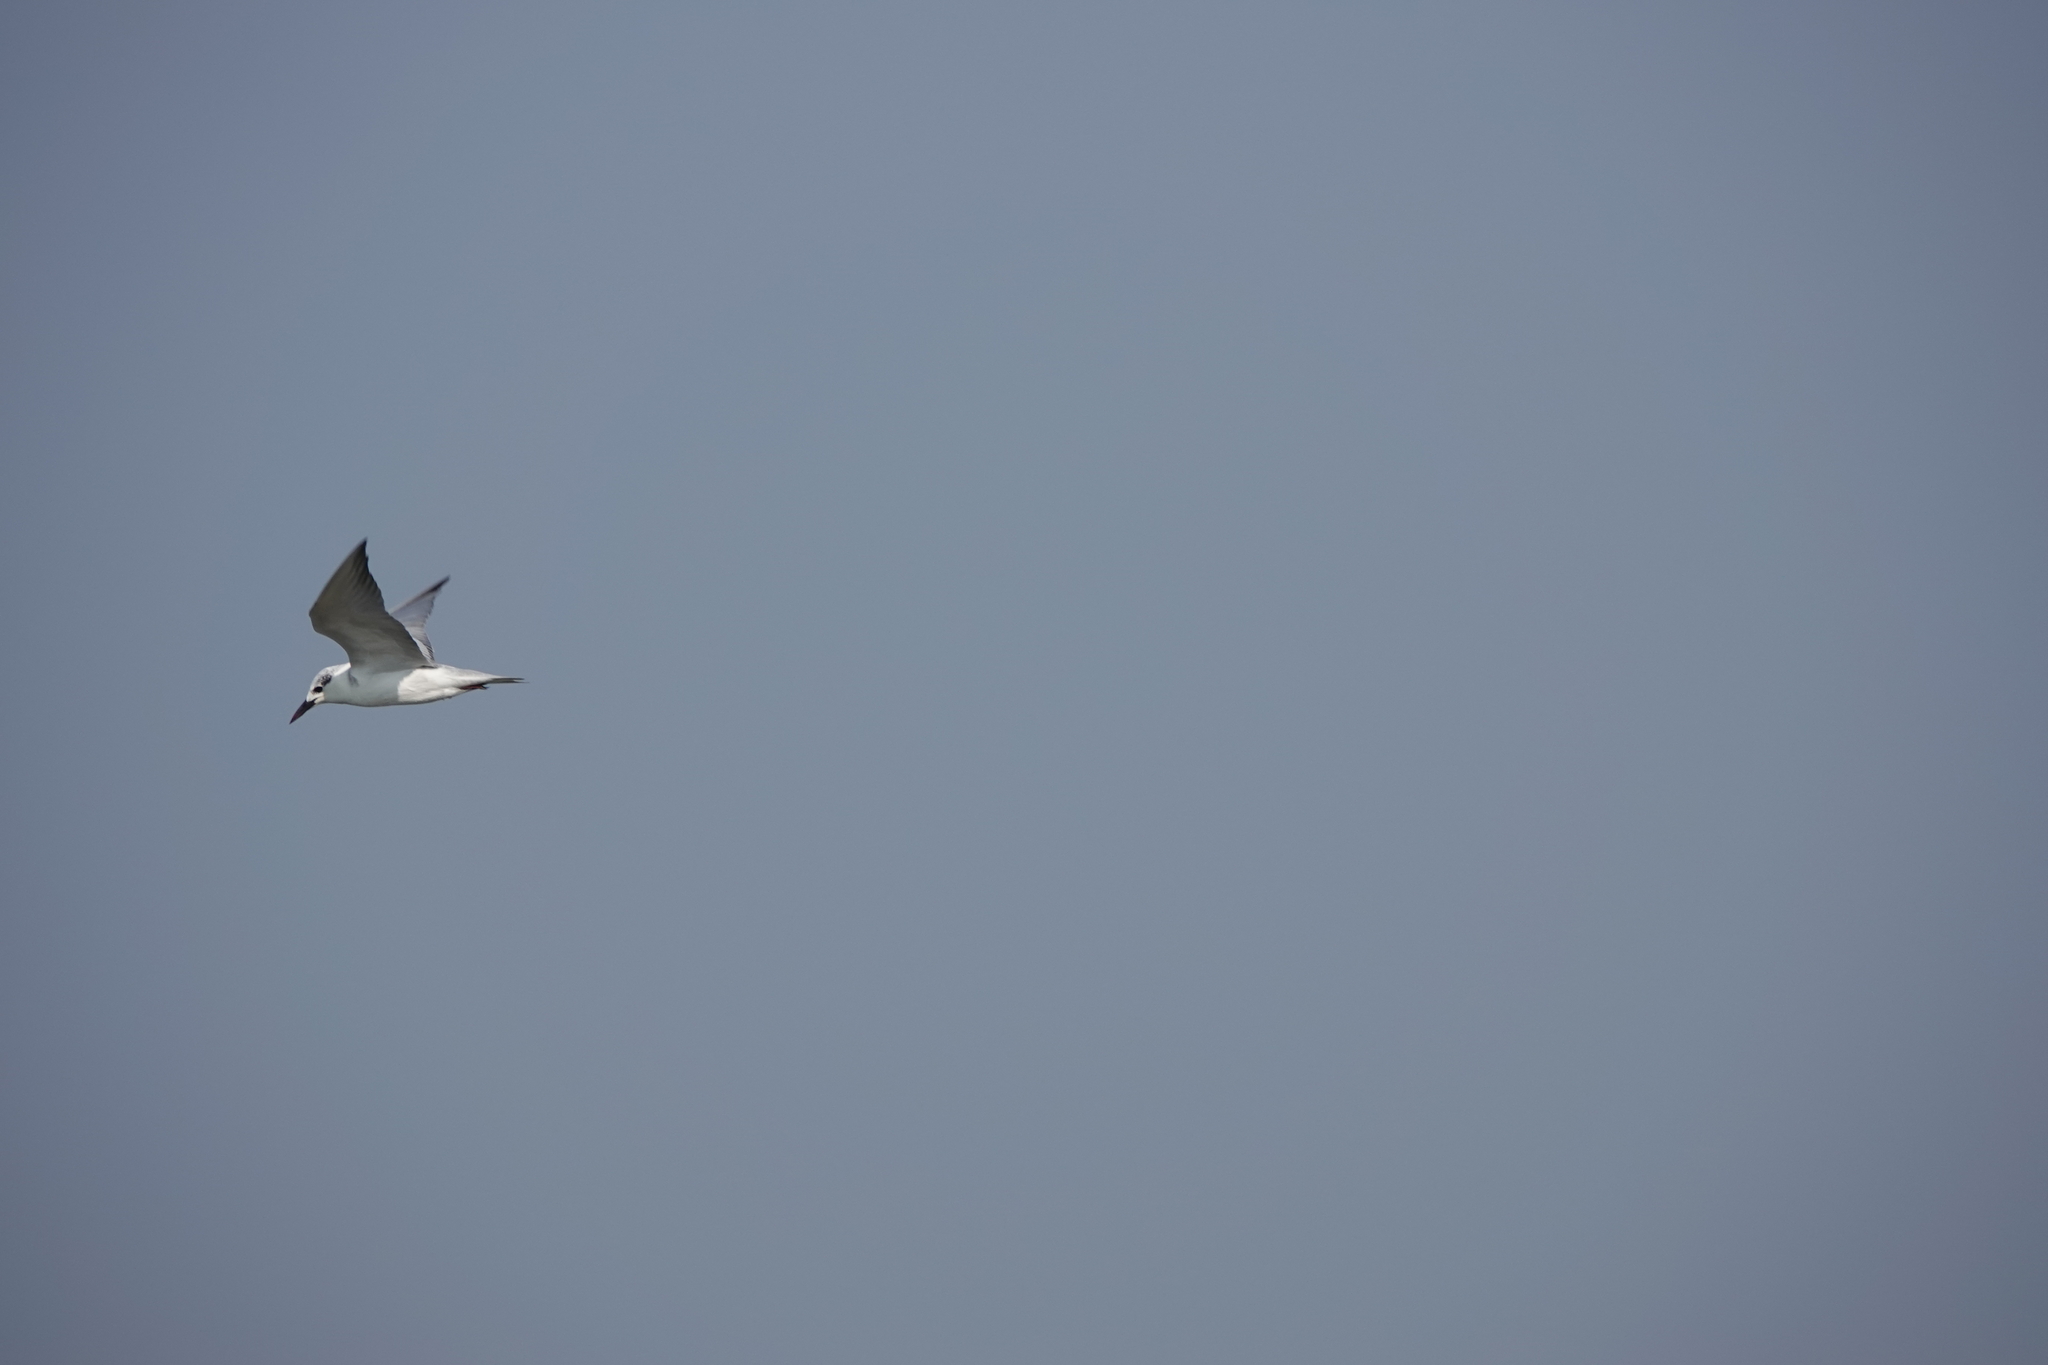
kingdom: Animalia
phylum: Chordata
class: Aves
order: Charadriiformes
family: Laridae
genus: Chlidonias
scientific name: Chlidonias hybrida
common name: Whiskered tern
